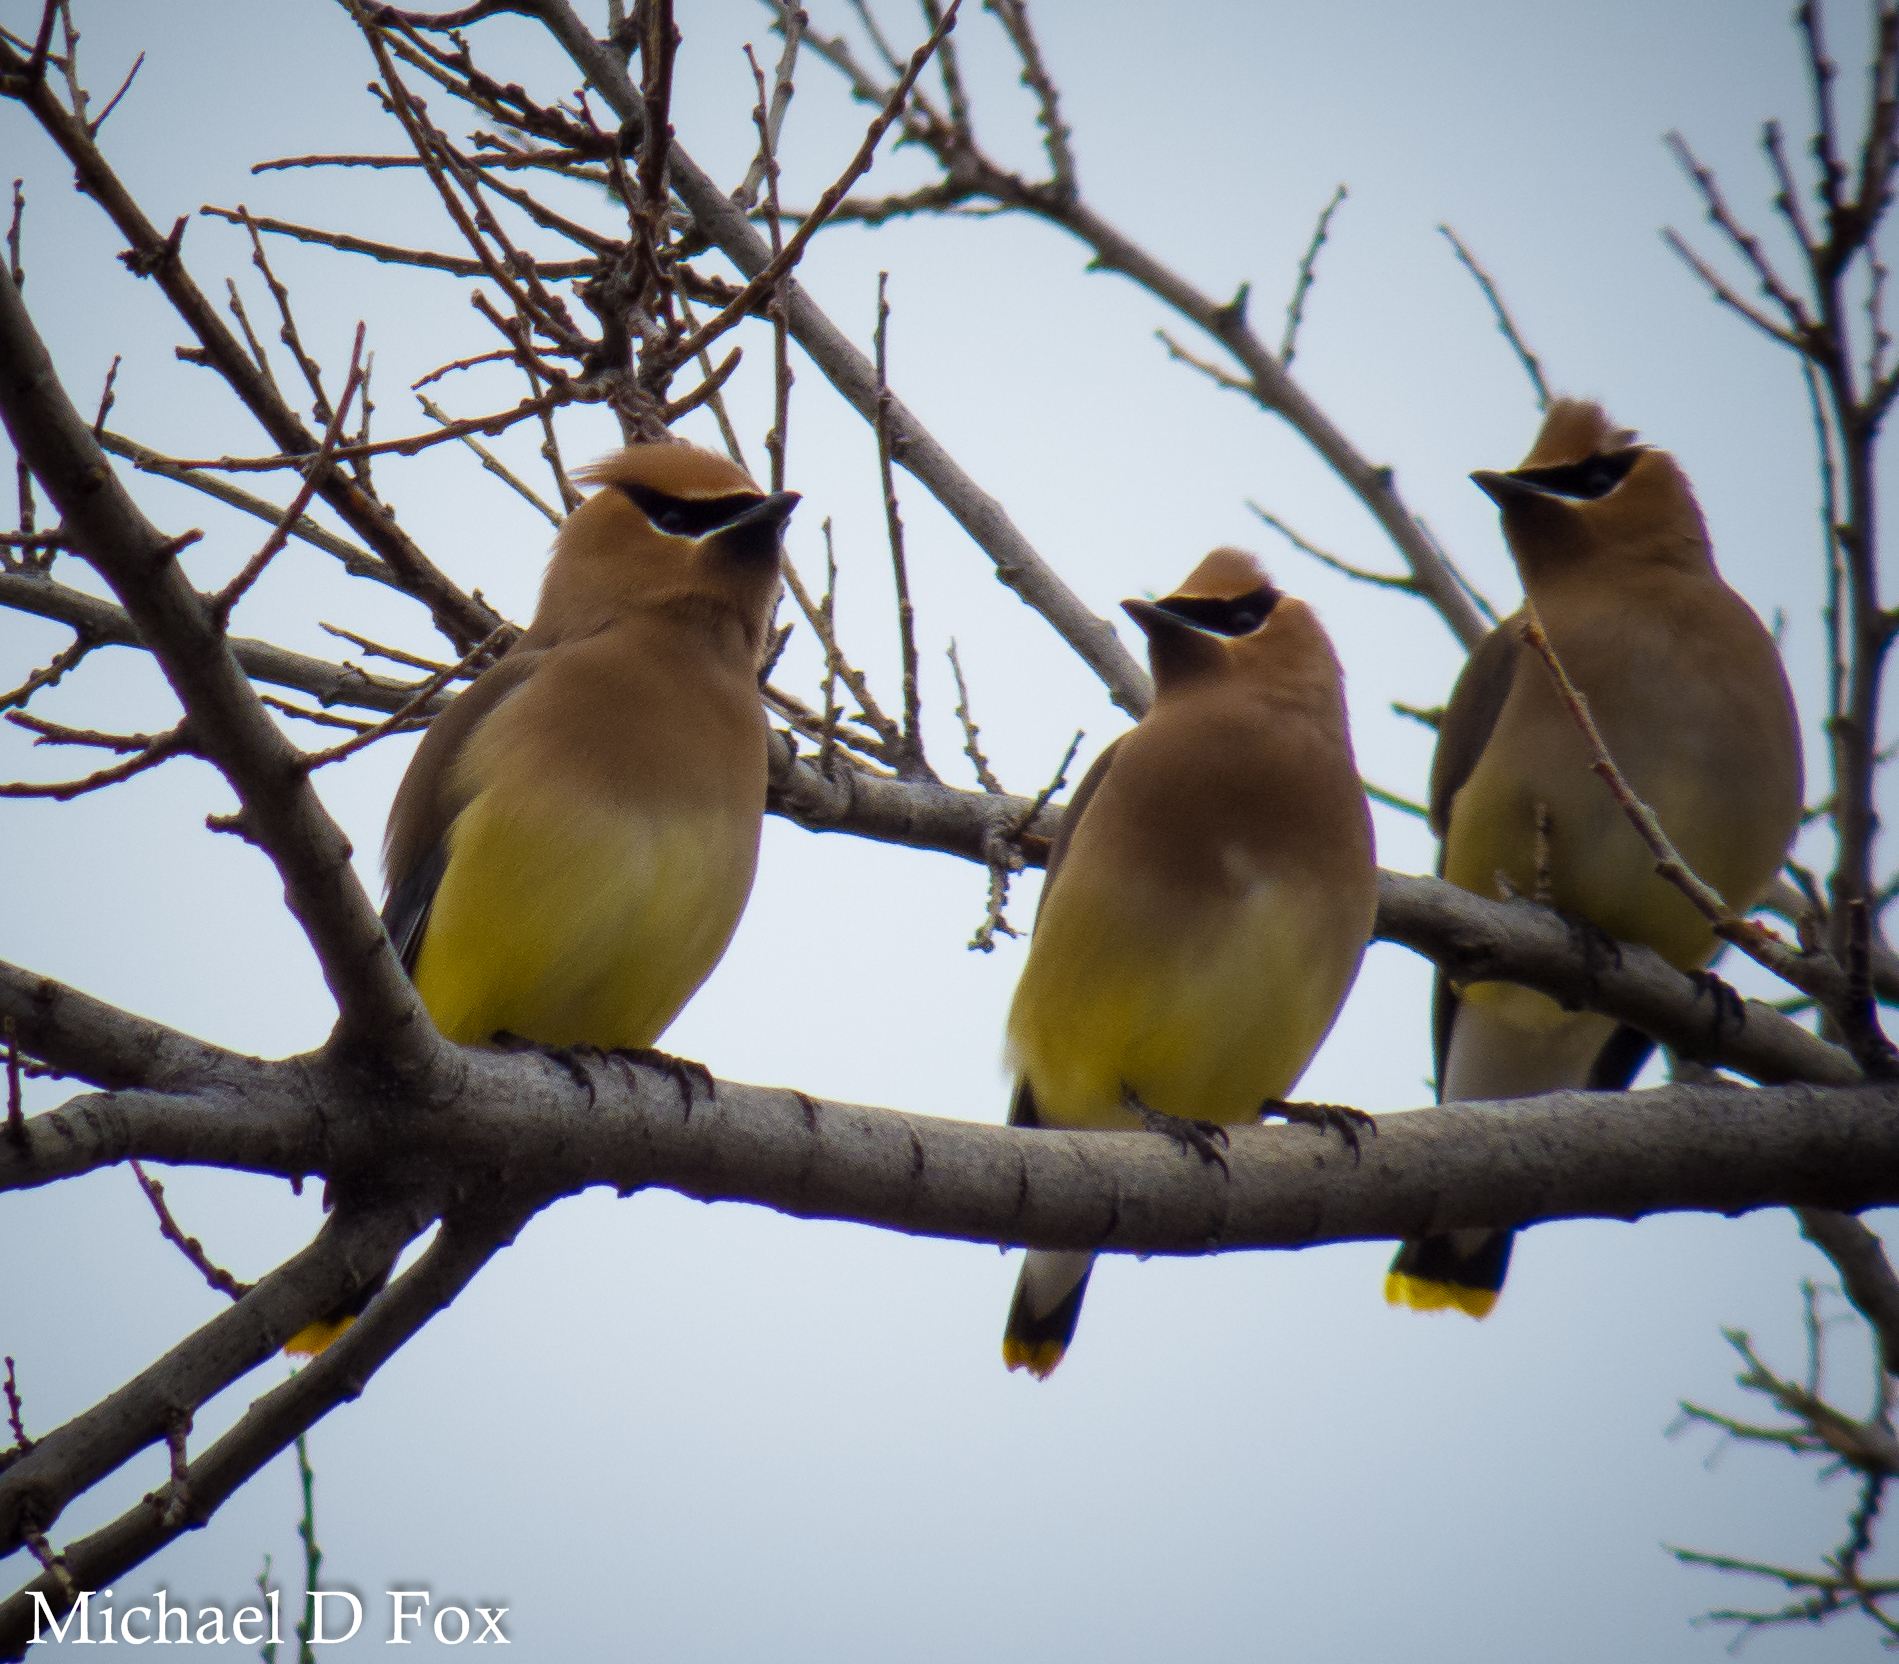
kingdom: Animalia
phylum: Chordata
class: Aves
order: Passeriformes
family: Bombycillidae
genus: Bombycilla
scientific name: Bombycilla cedrorum
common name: Cedar waxwing
